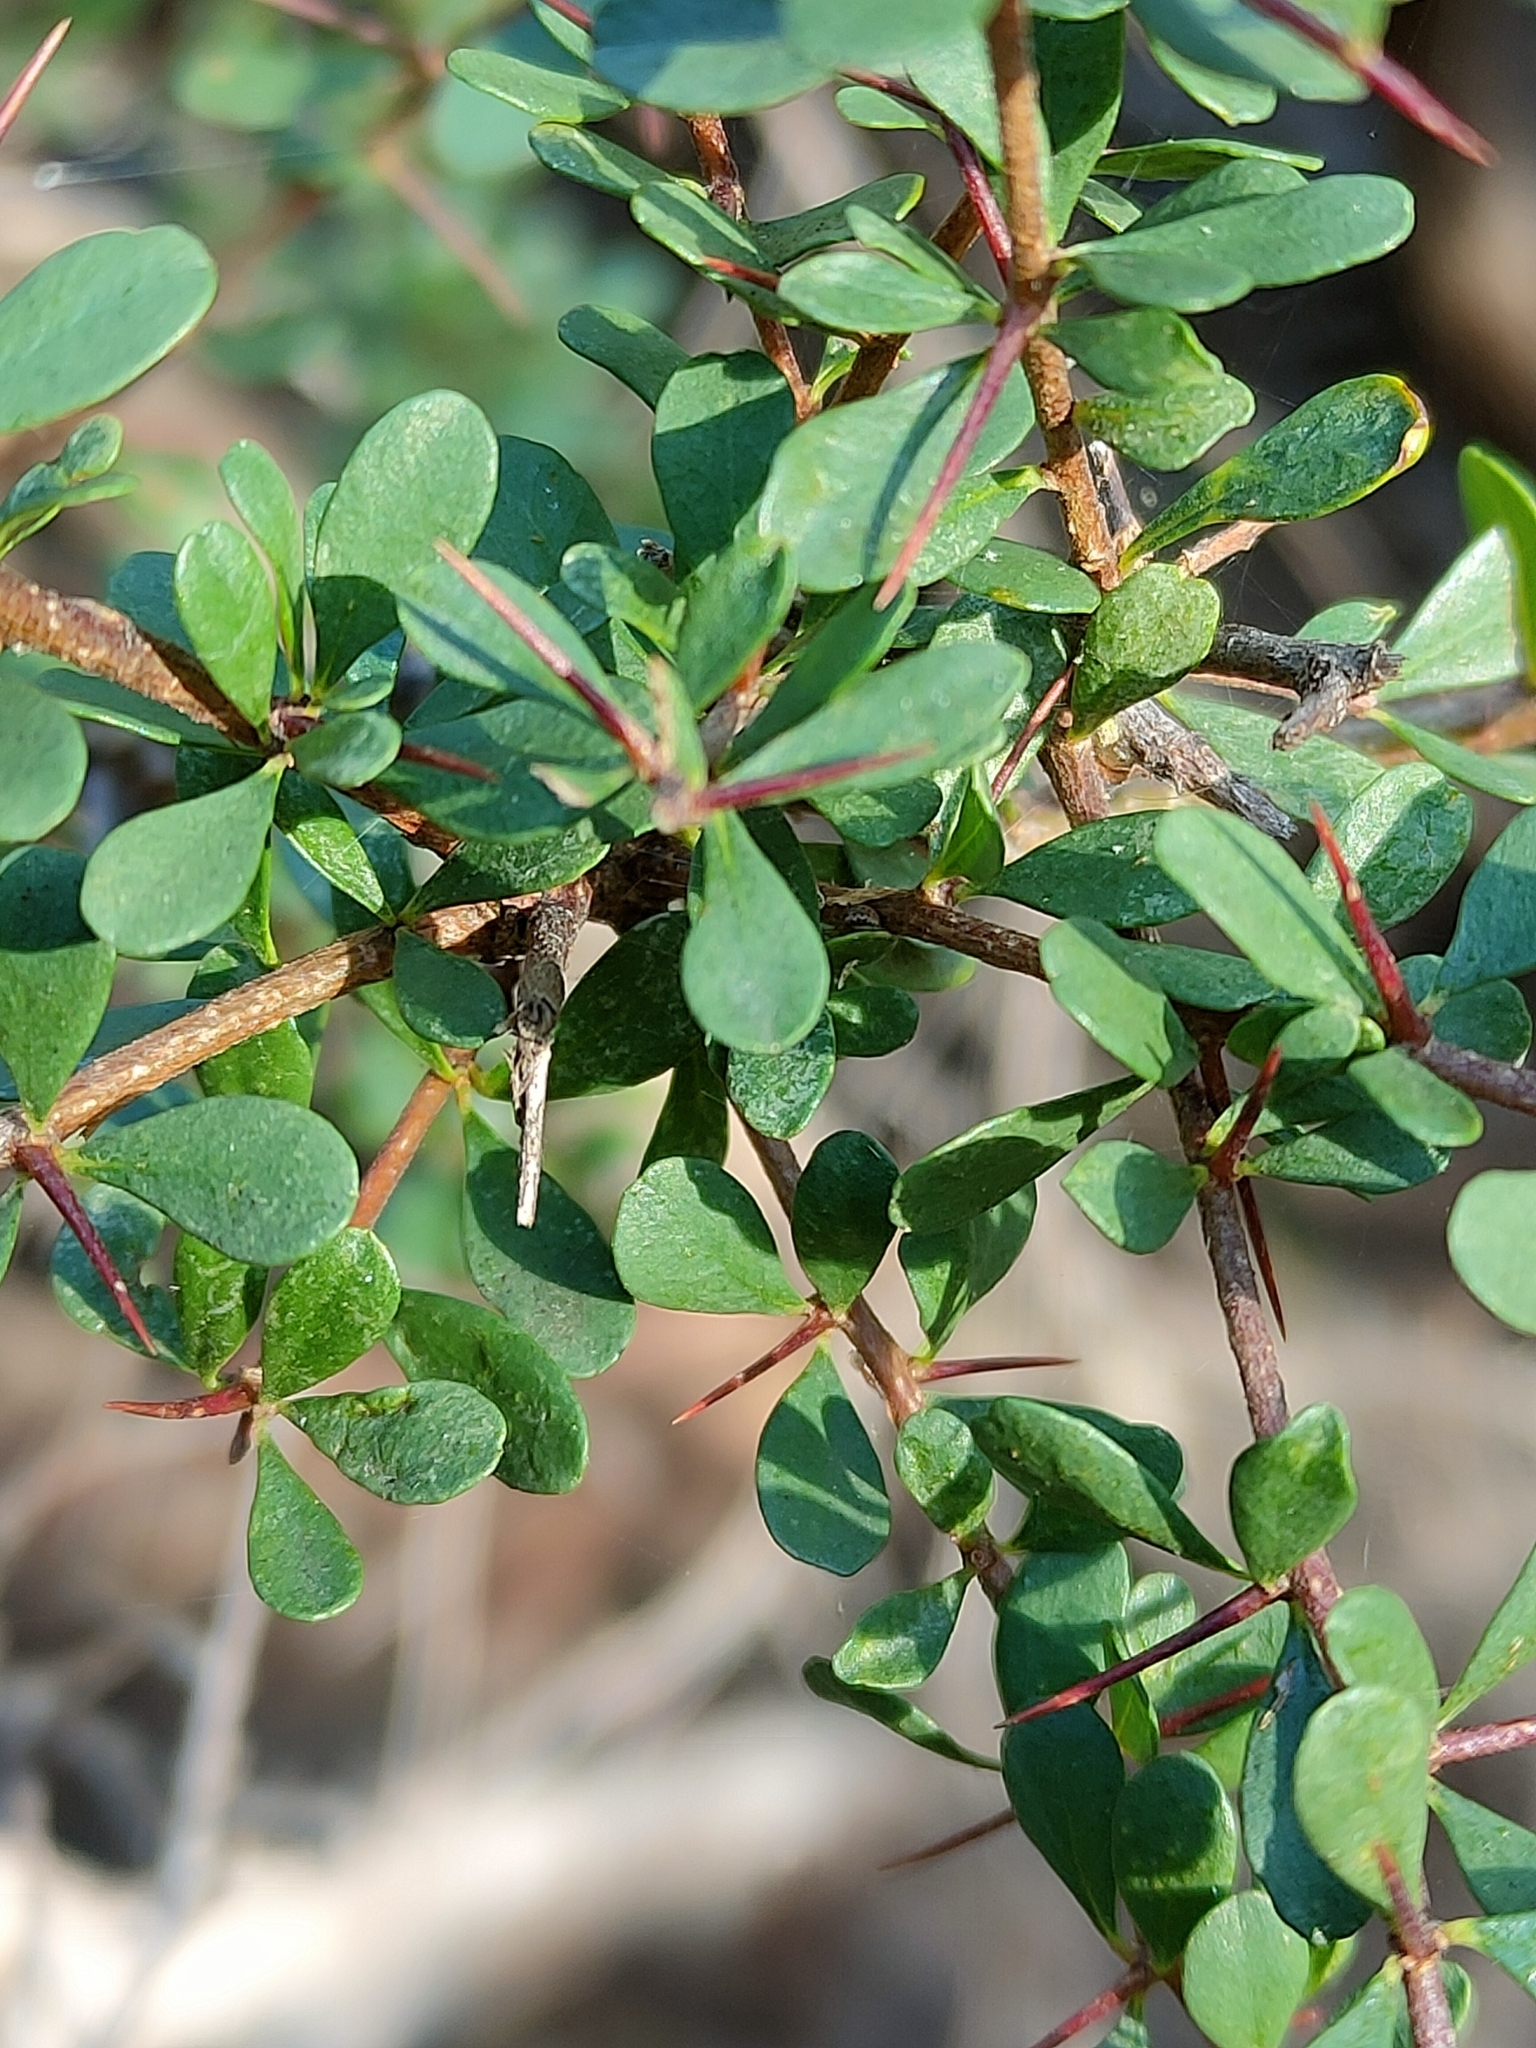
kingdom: Plantae
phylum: Tracheophyta
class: Magnoliopsida
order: Apiales
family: Pittosporaceae
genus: Bursaria
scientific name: Bursaria spinosa
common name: Australian blackthorn
